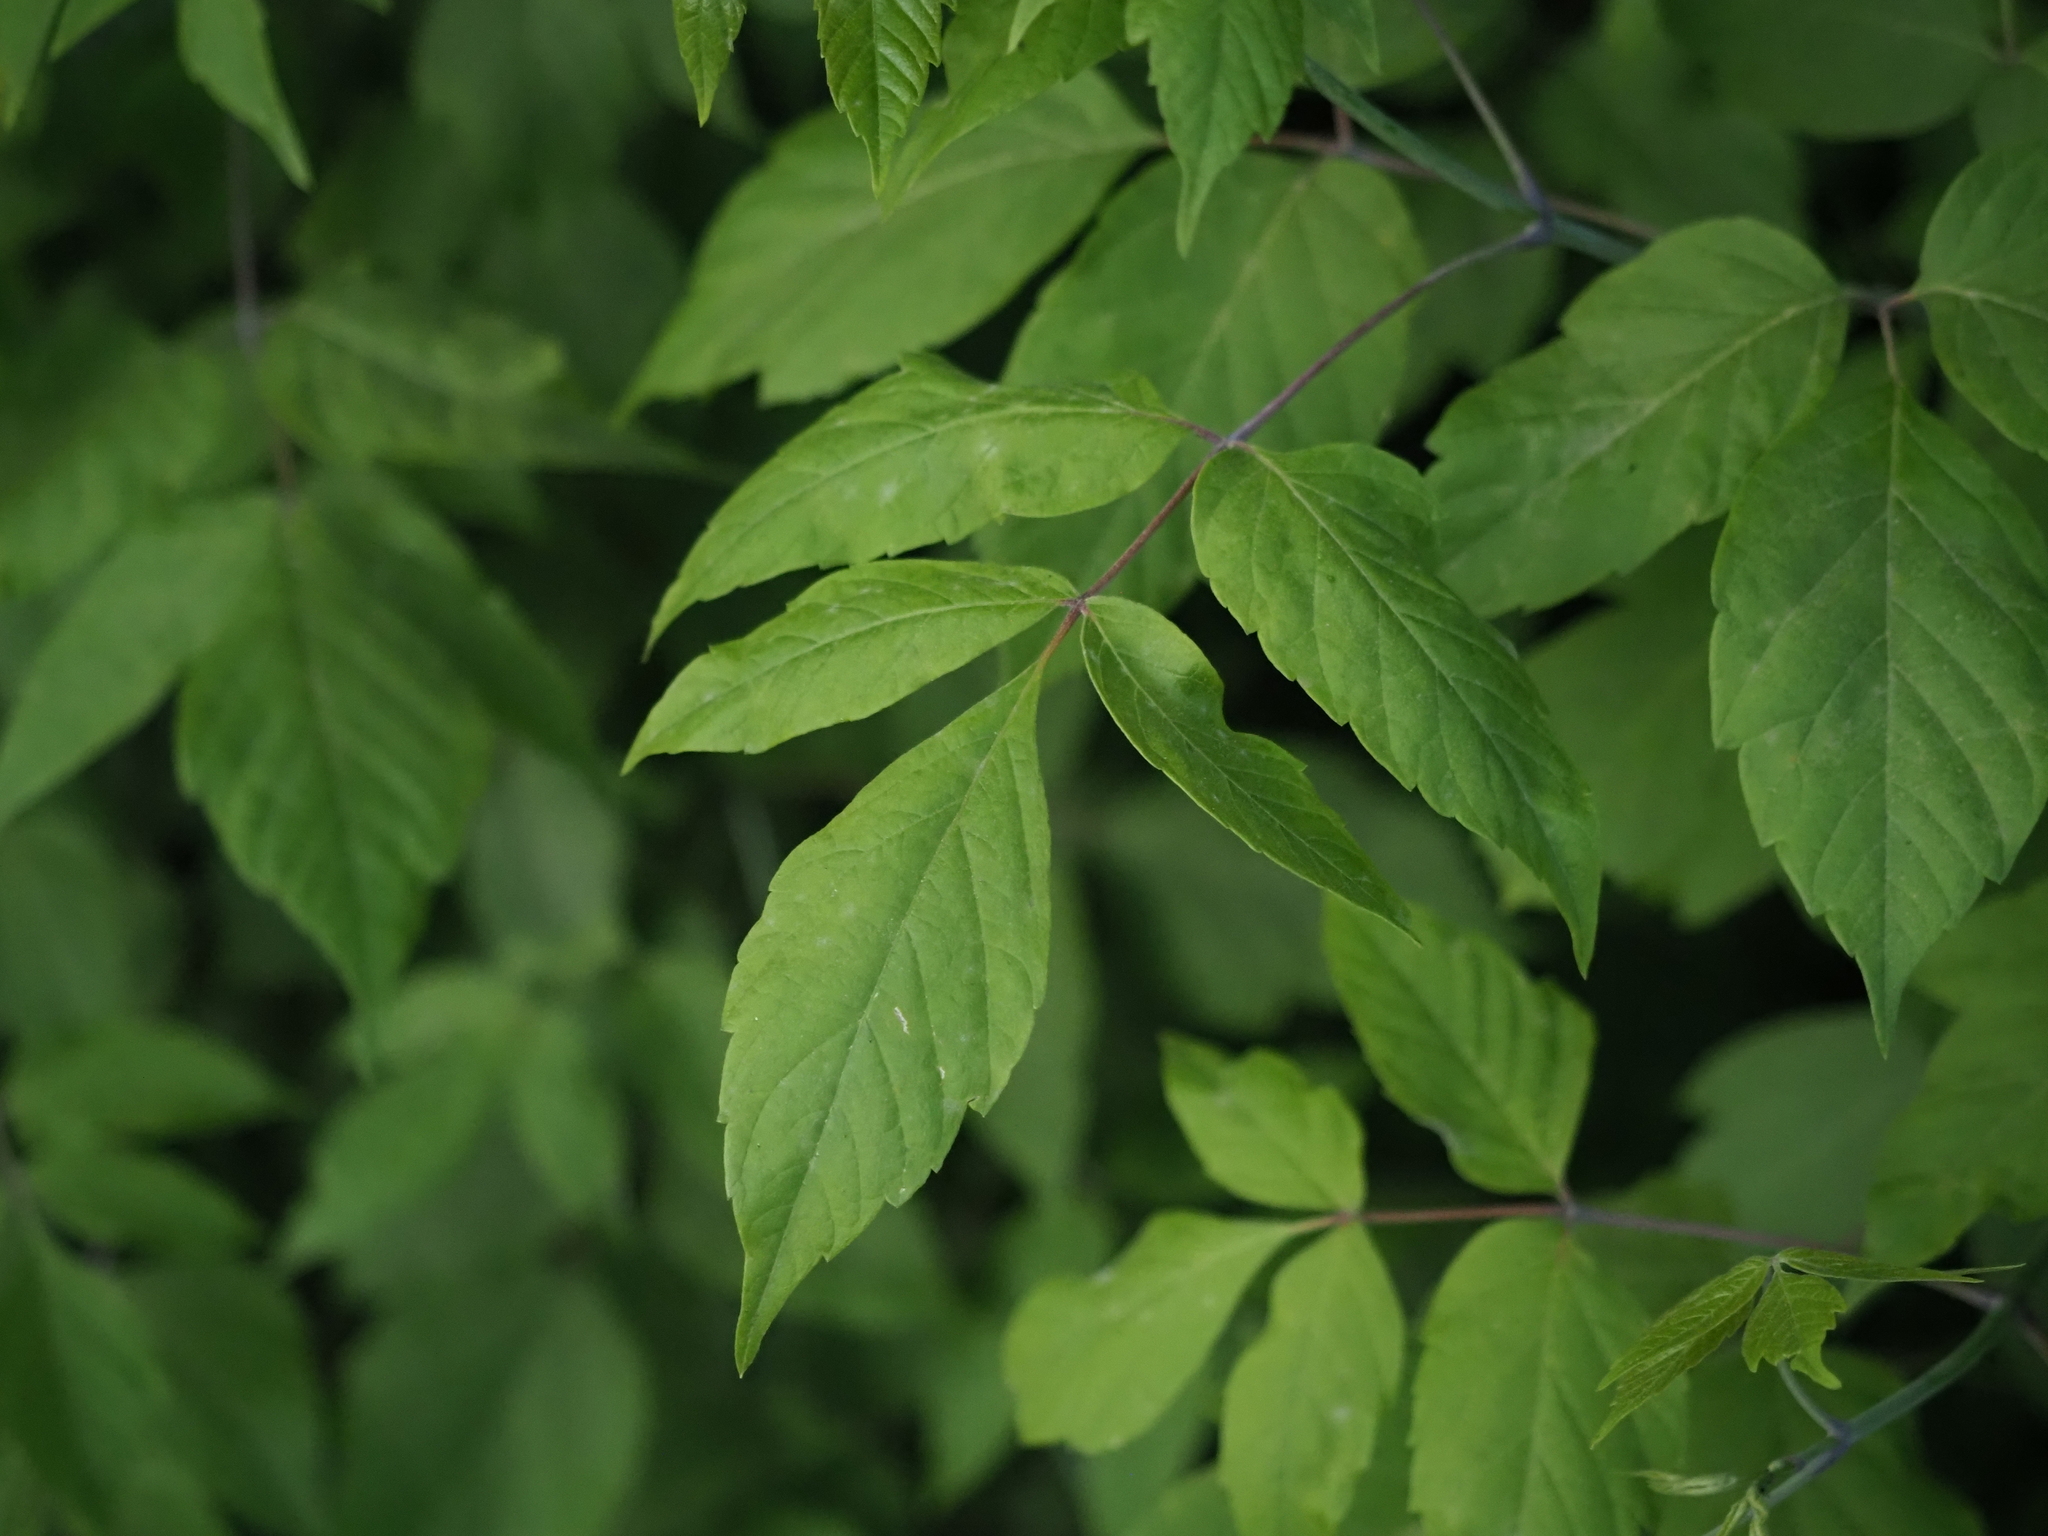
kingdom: Plantae
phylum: Tracheophyta
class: Magnoliopsida
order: Sapindales
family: Sapindaceae
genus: Acer
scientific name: Acer negundo
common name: Ashleaf maple
